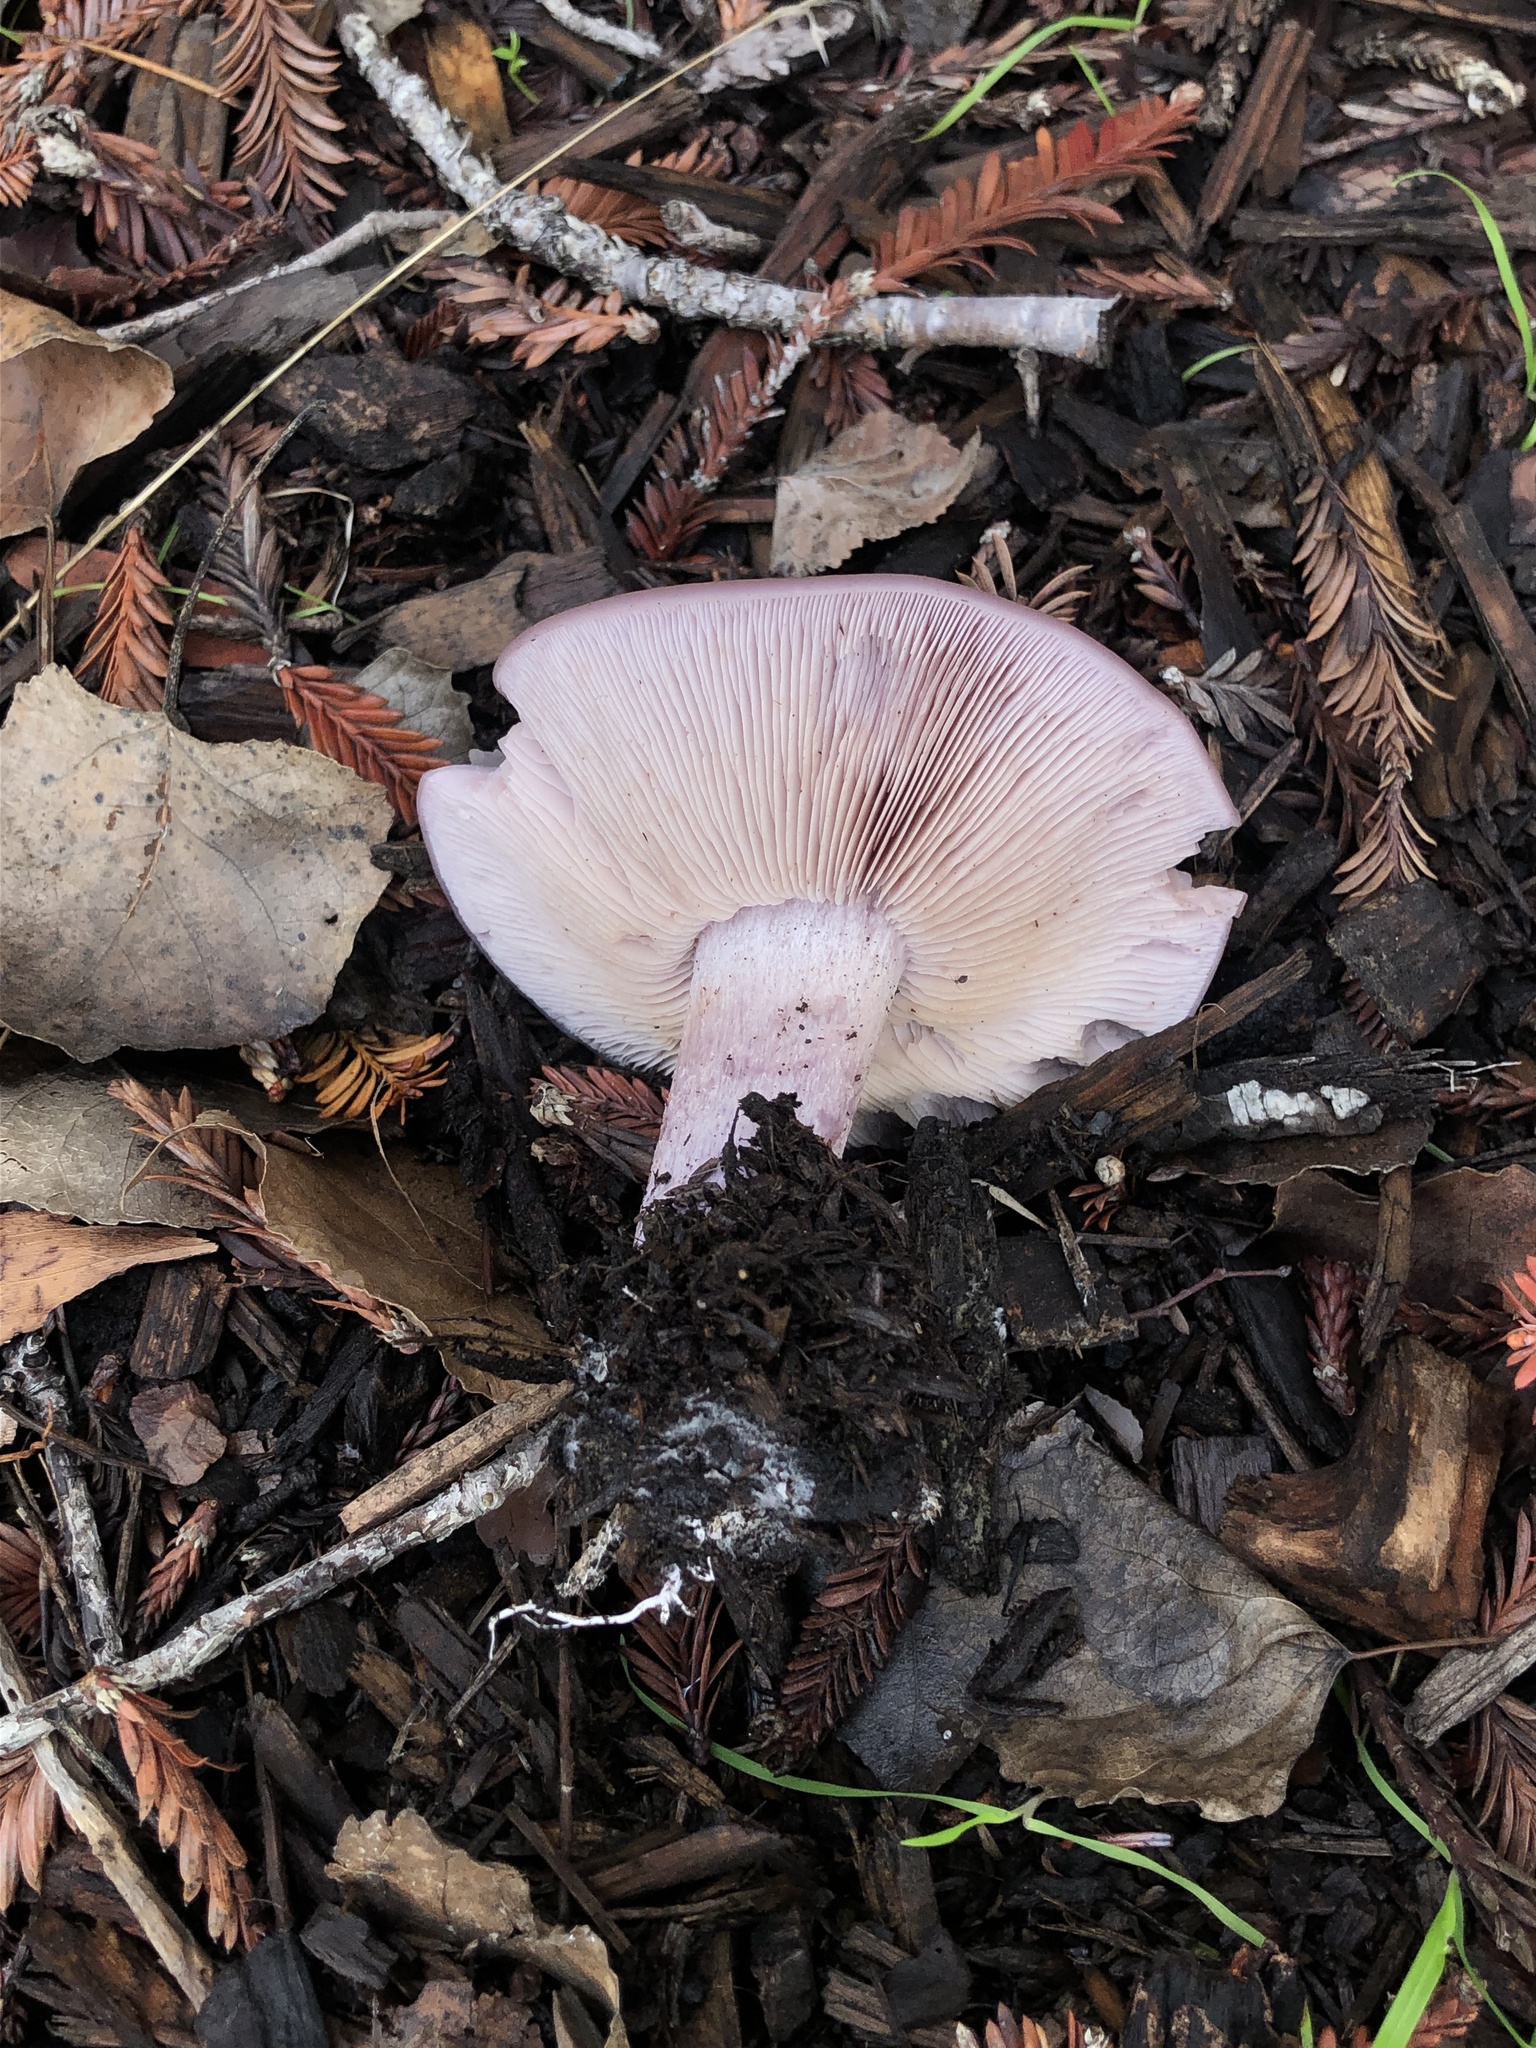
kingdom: Fungi
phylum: Basidiomycota
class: Agaricomycetes
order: Agaricales
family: Tricholomataceae
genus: Collybia
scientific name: Collybia
